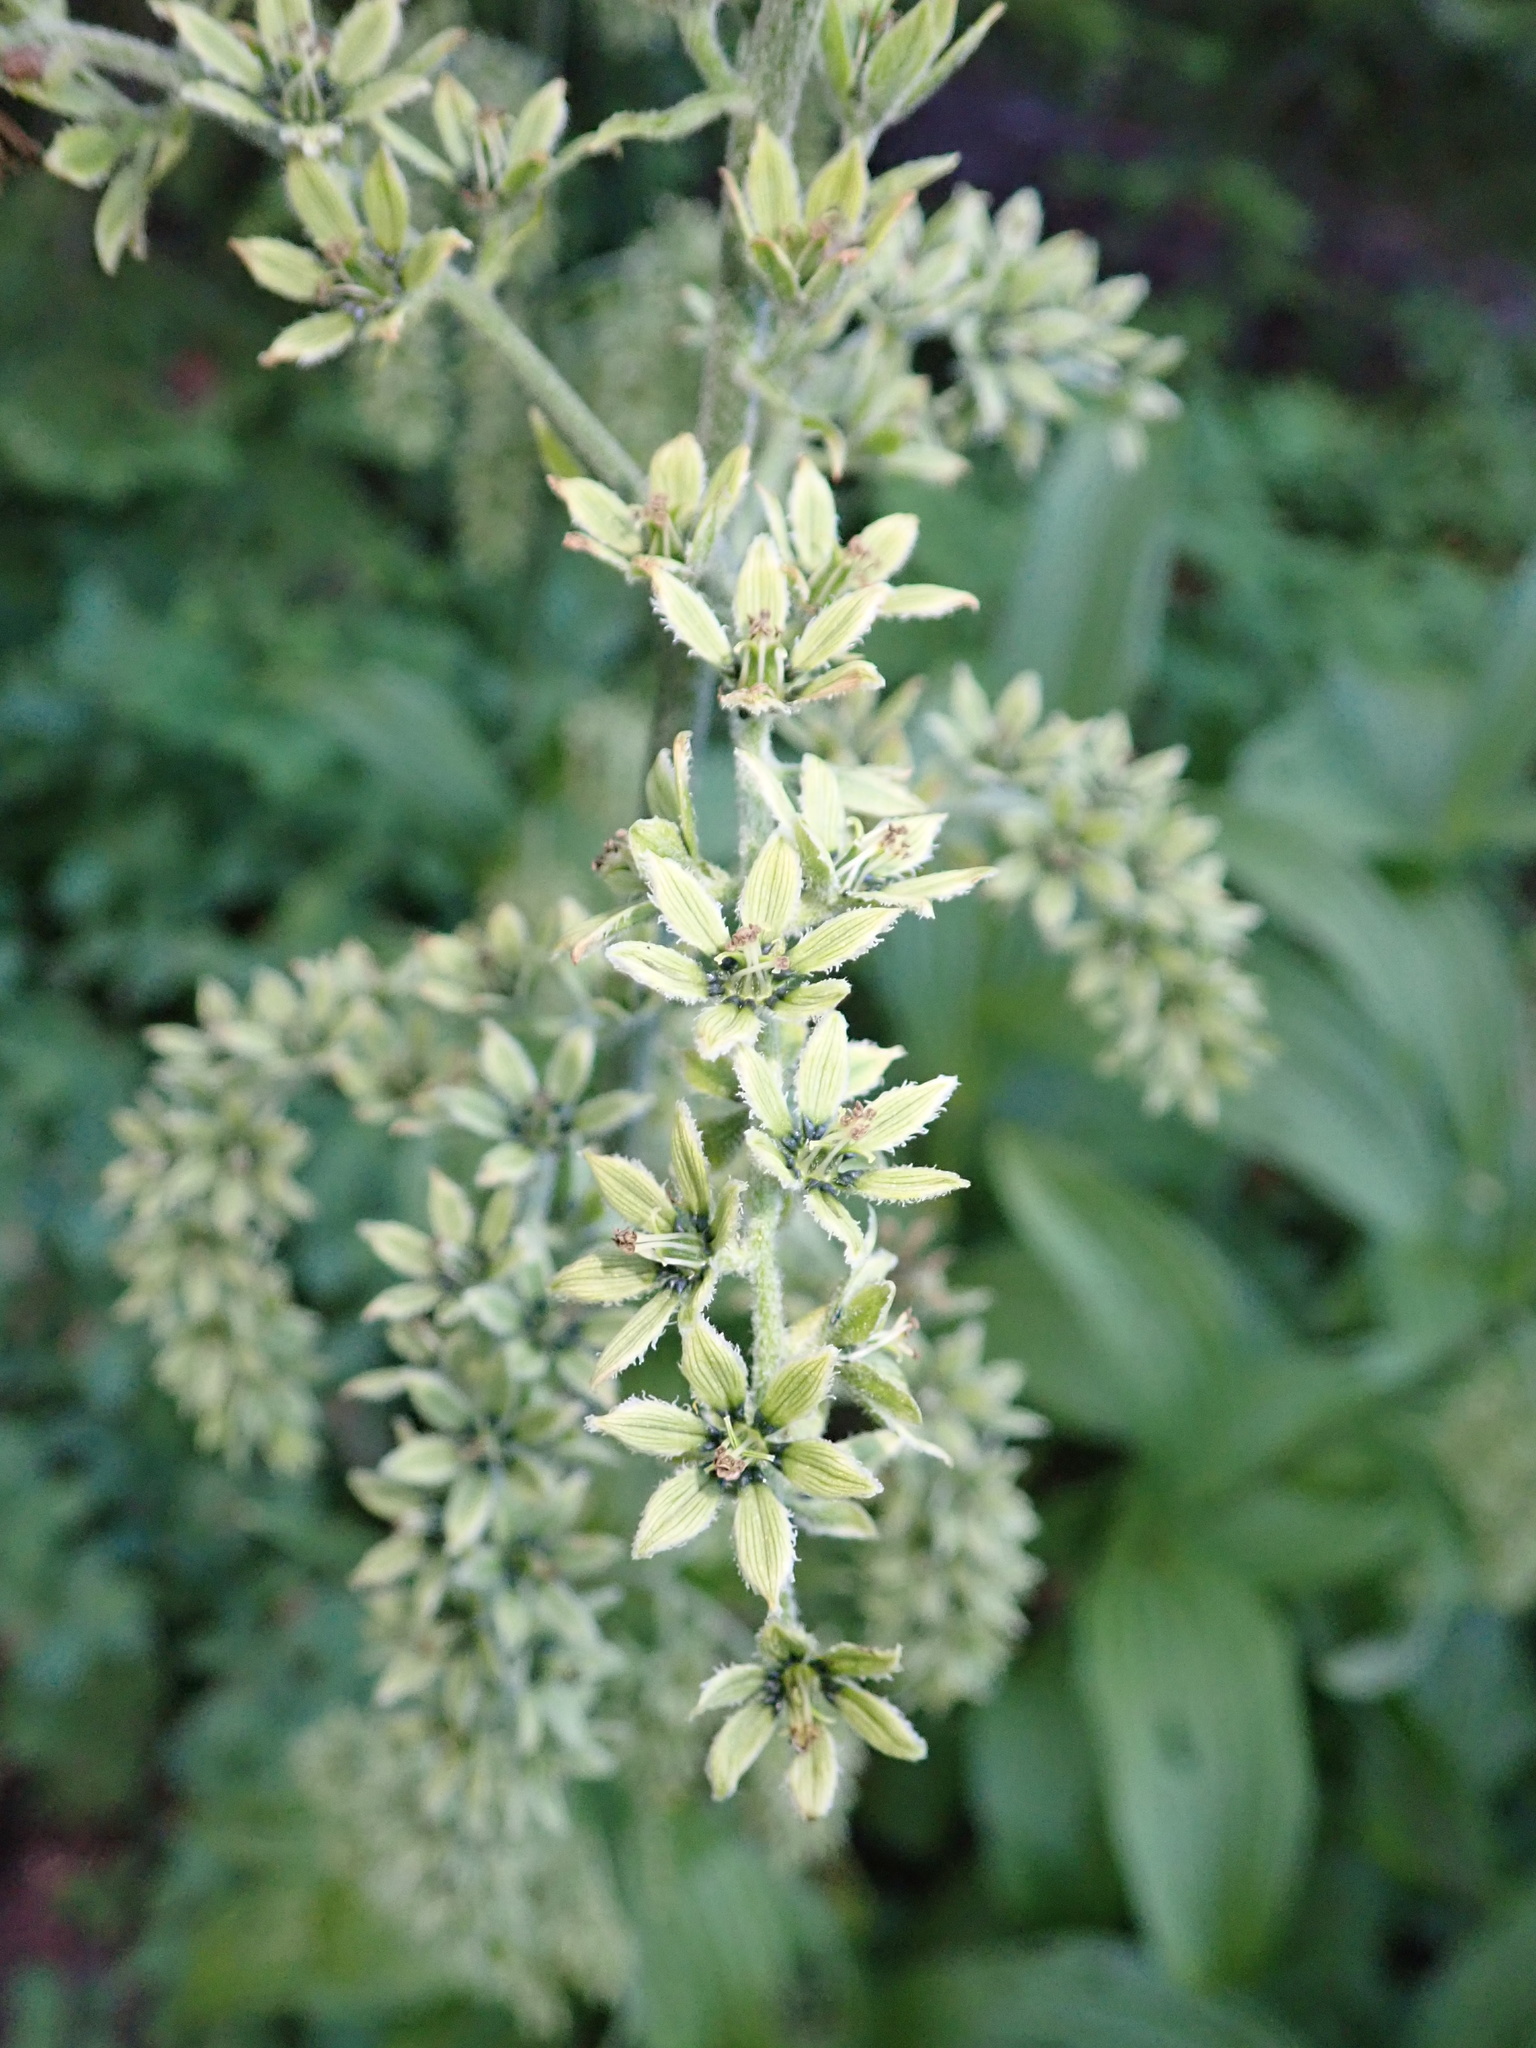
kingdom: Plantae
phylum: Tracheophyta
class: Liliopsida
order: Liliales
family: Melanthiaceae
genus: Veratrum
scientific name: Veratrum viride
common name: American false hellebore
